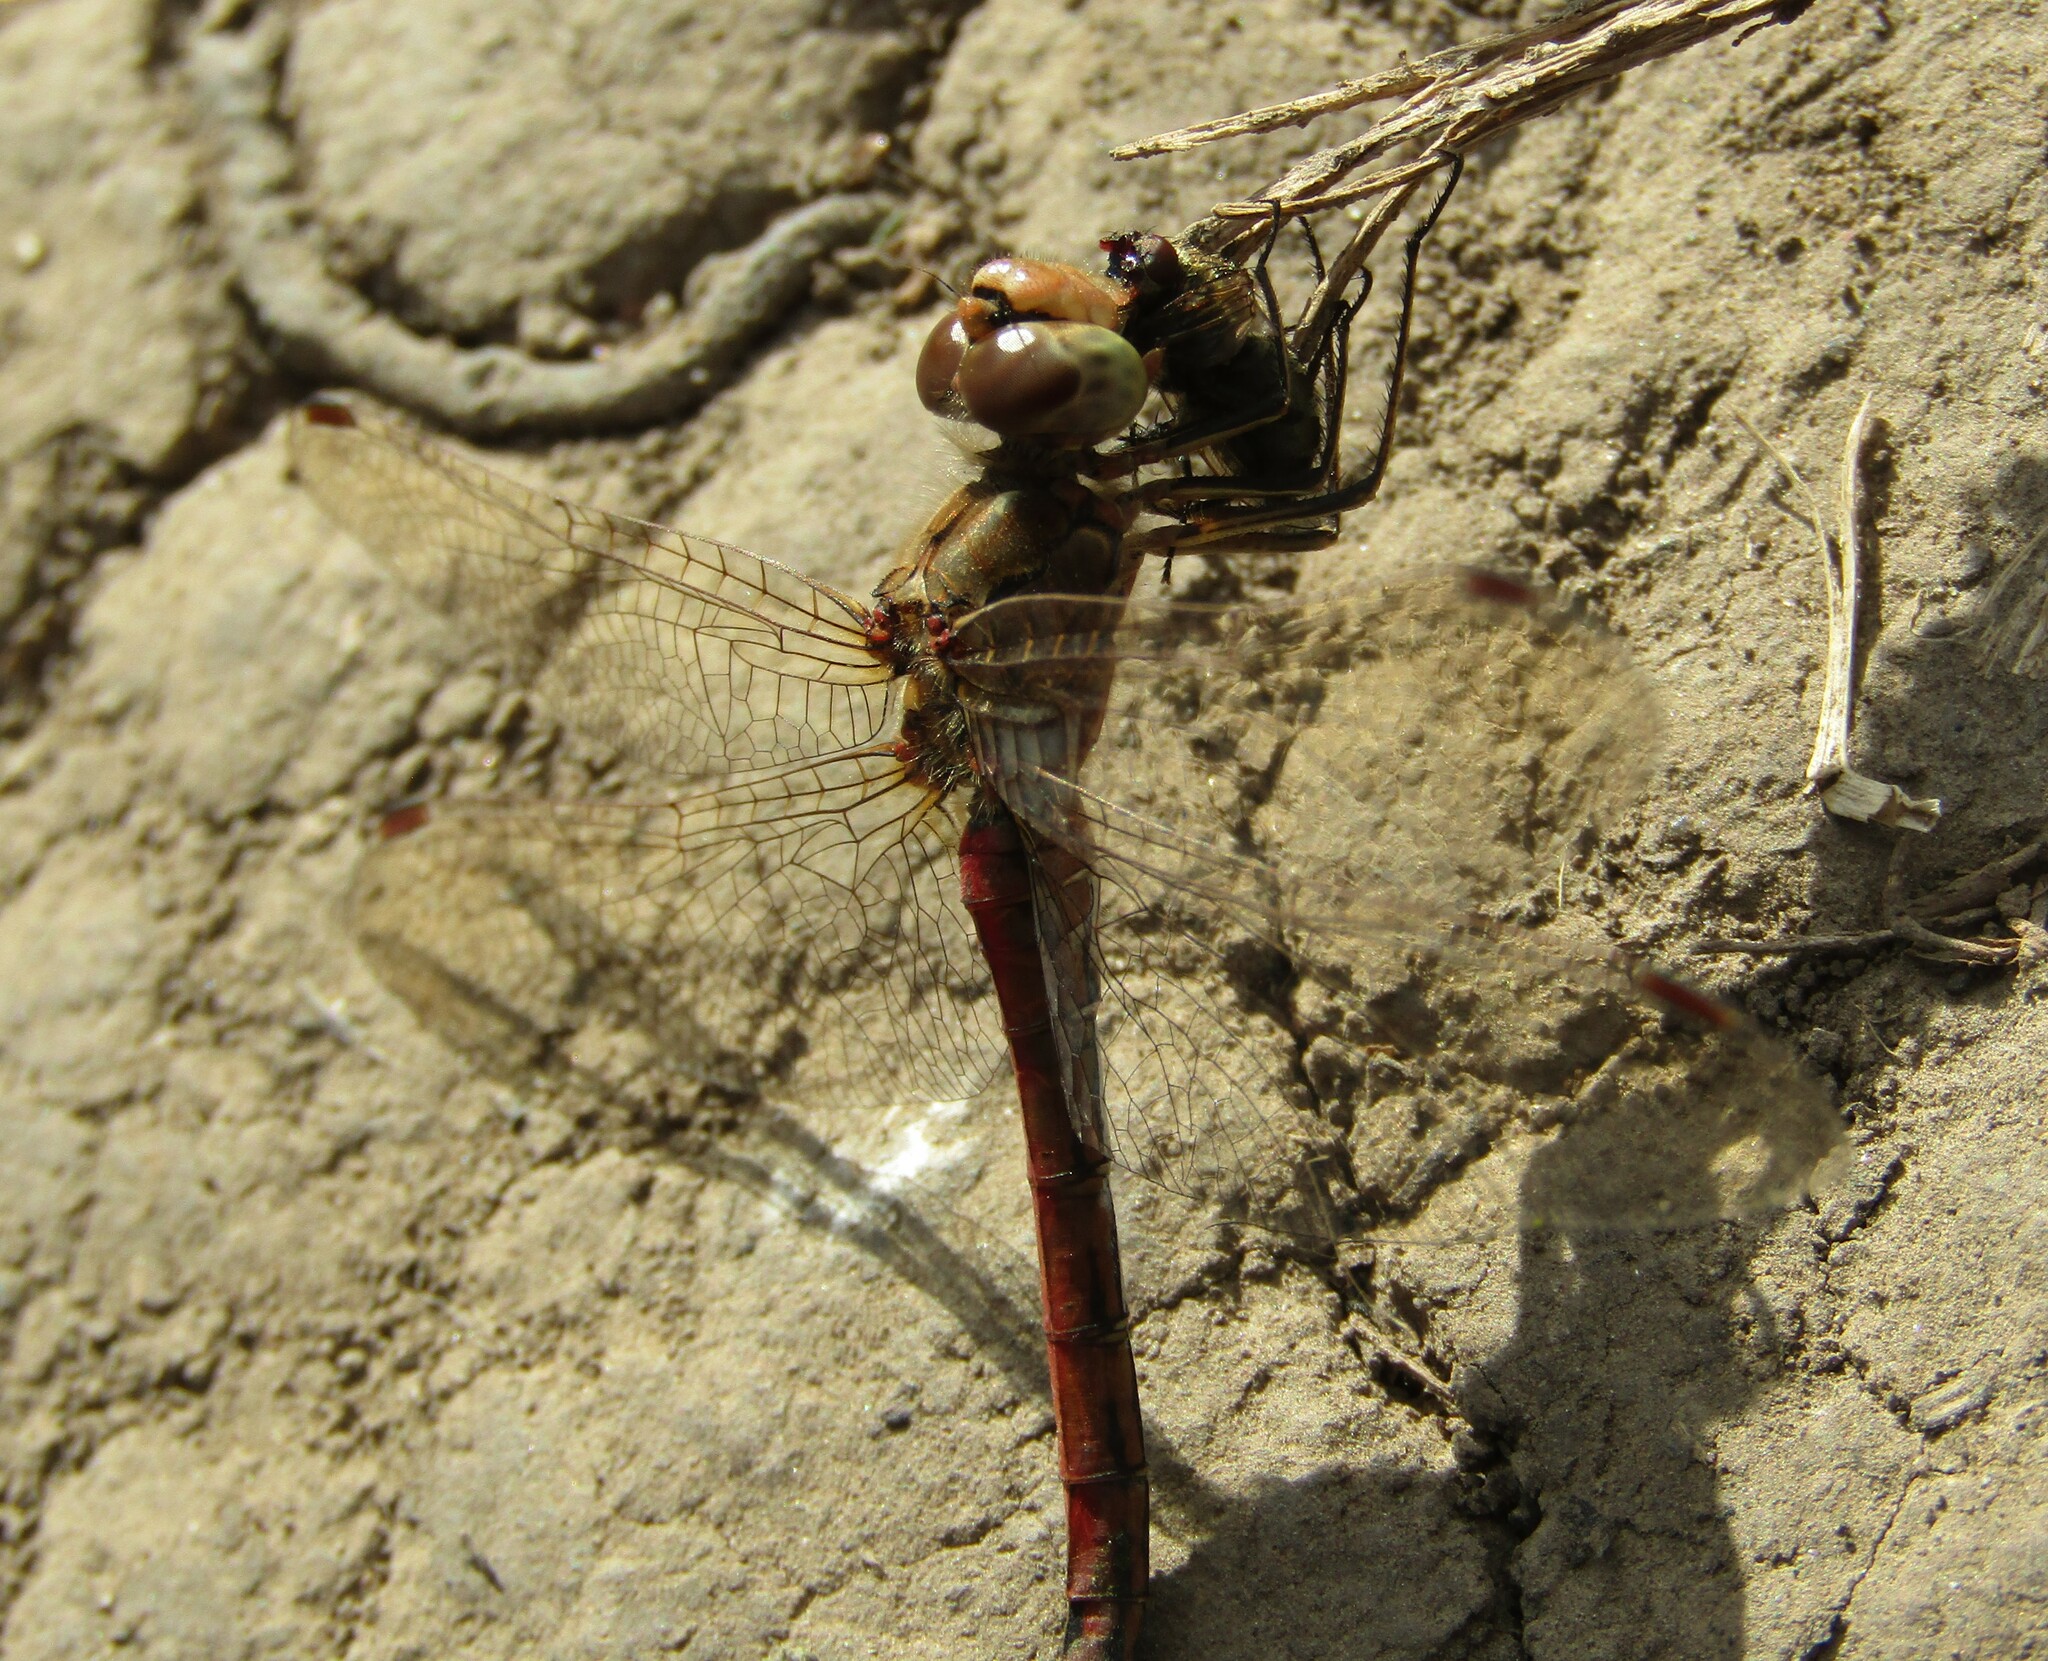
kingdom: Animalia
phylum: Arthropoda
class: Insecta
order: Odonata
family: Libellulidae
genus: Sympetrum
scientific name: Sympetrum vulgatum
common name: Vagrant darter
